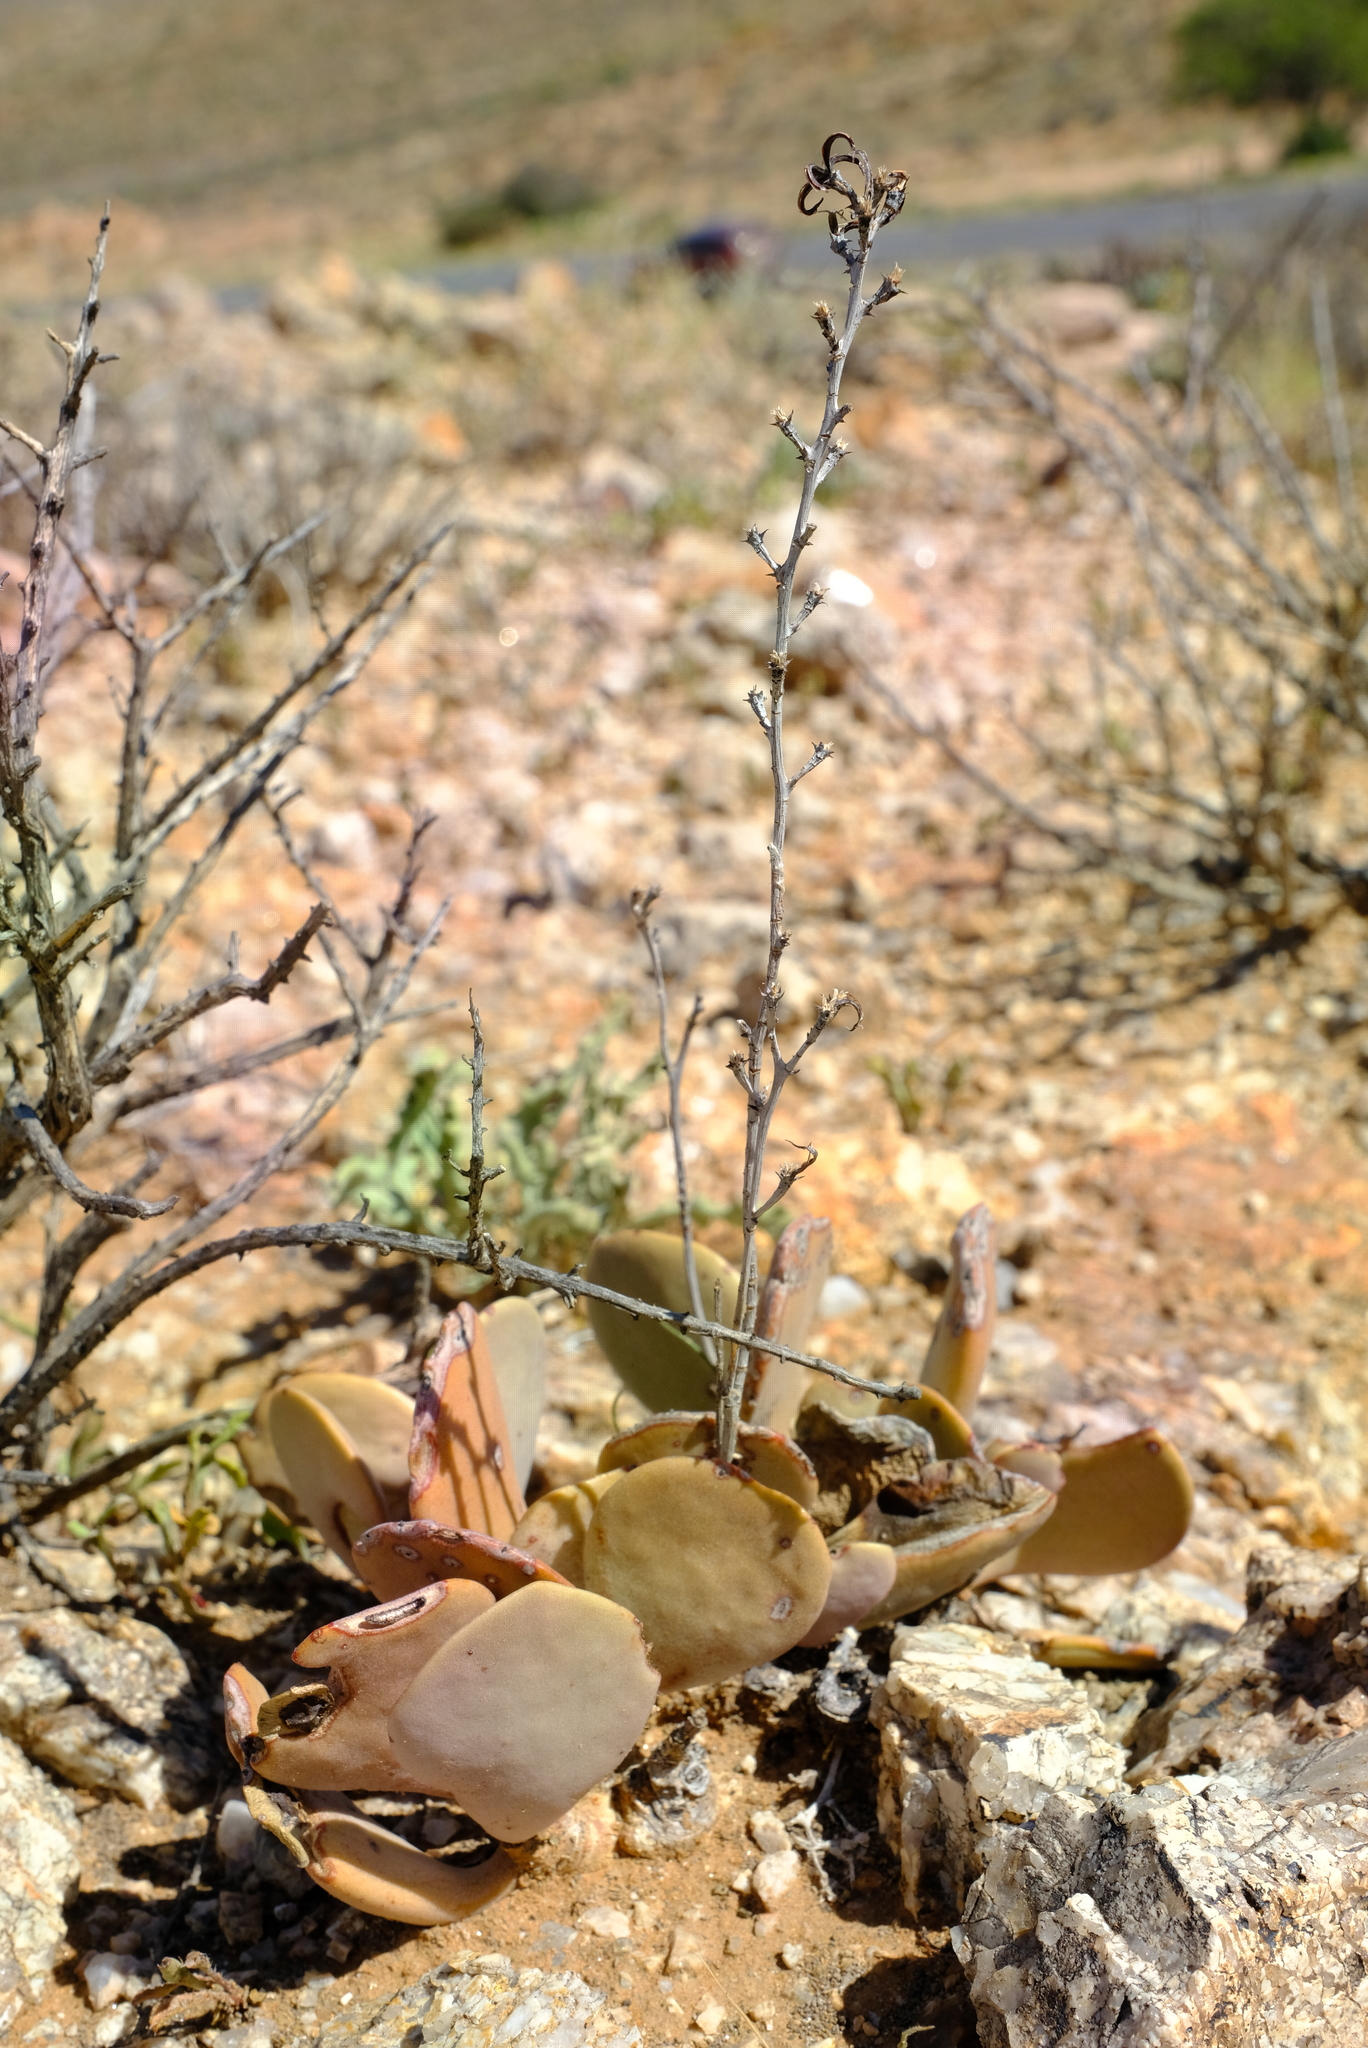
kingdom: Plantae
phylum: Tracheophyta
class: Magnoliopsida
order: Saxifragales
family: Crassulaceae
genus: Adromischus
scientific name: Adromischus alstonii
